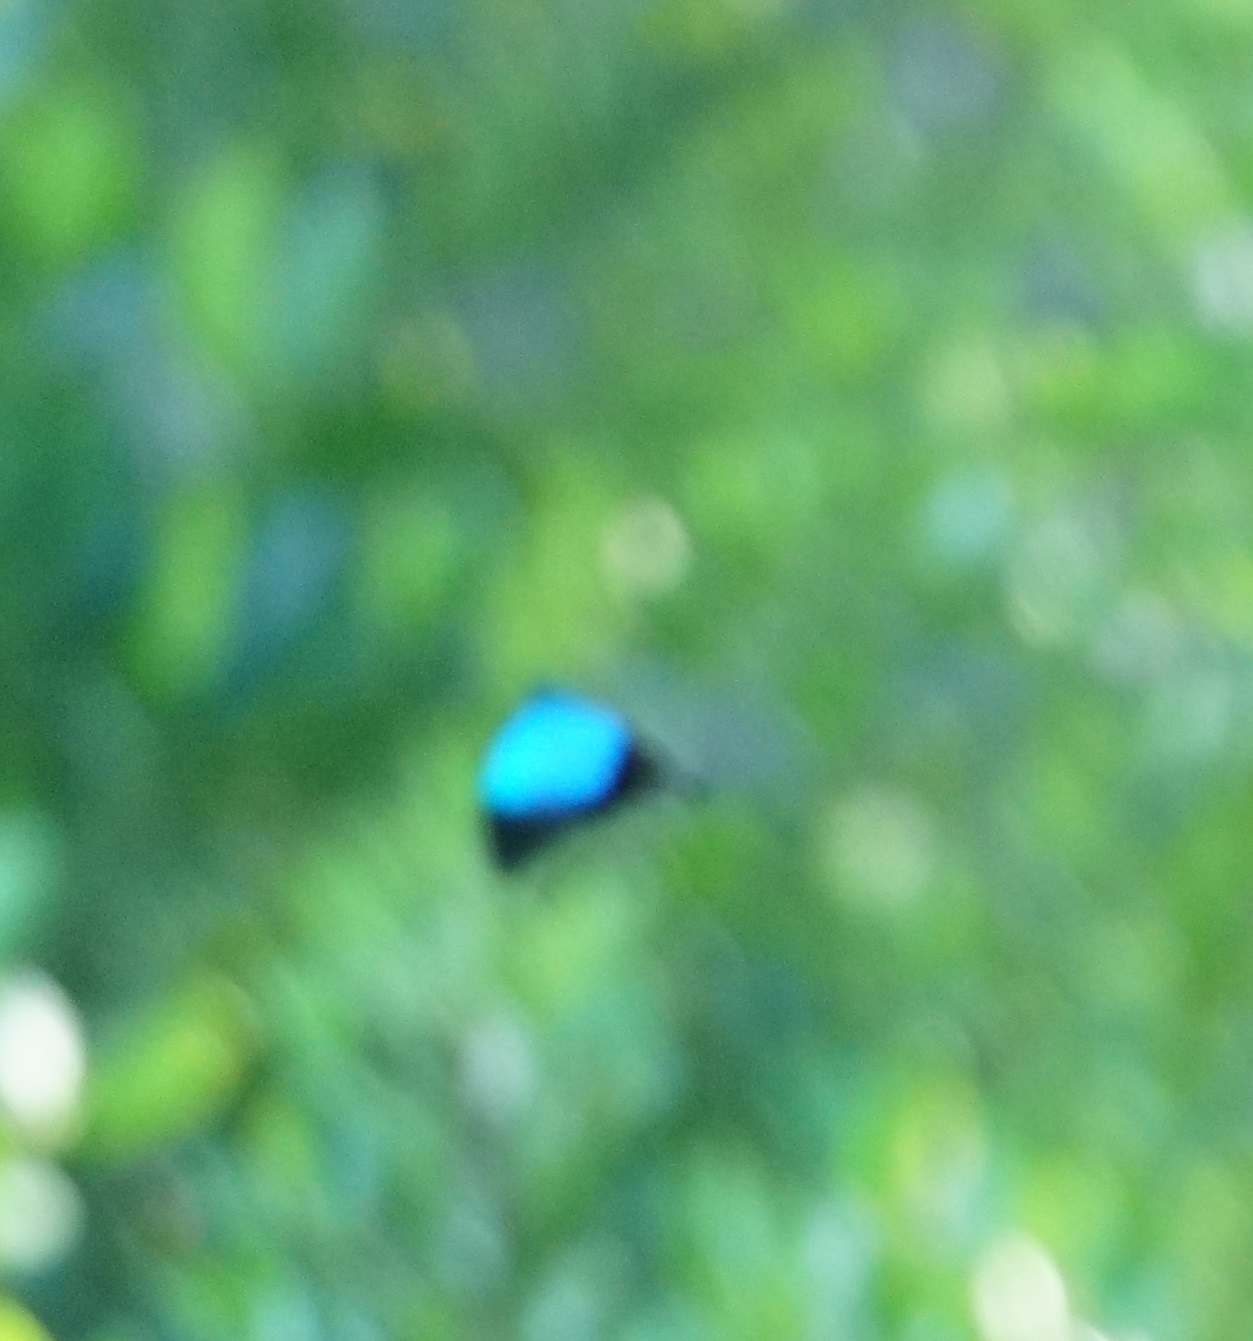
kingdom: Animalia
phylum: Arthropoda
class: Insecta
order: Lepidoptera
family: Papilionidae
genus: Papilio
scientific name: Papilio ulysses
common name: Blue emperor
